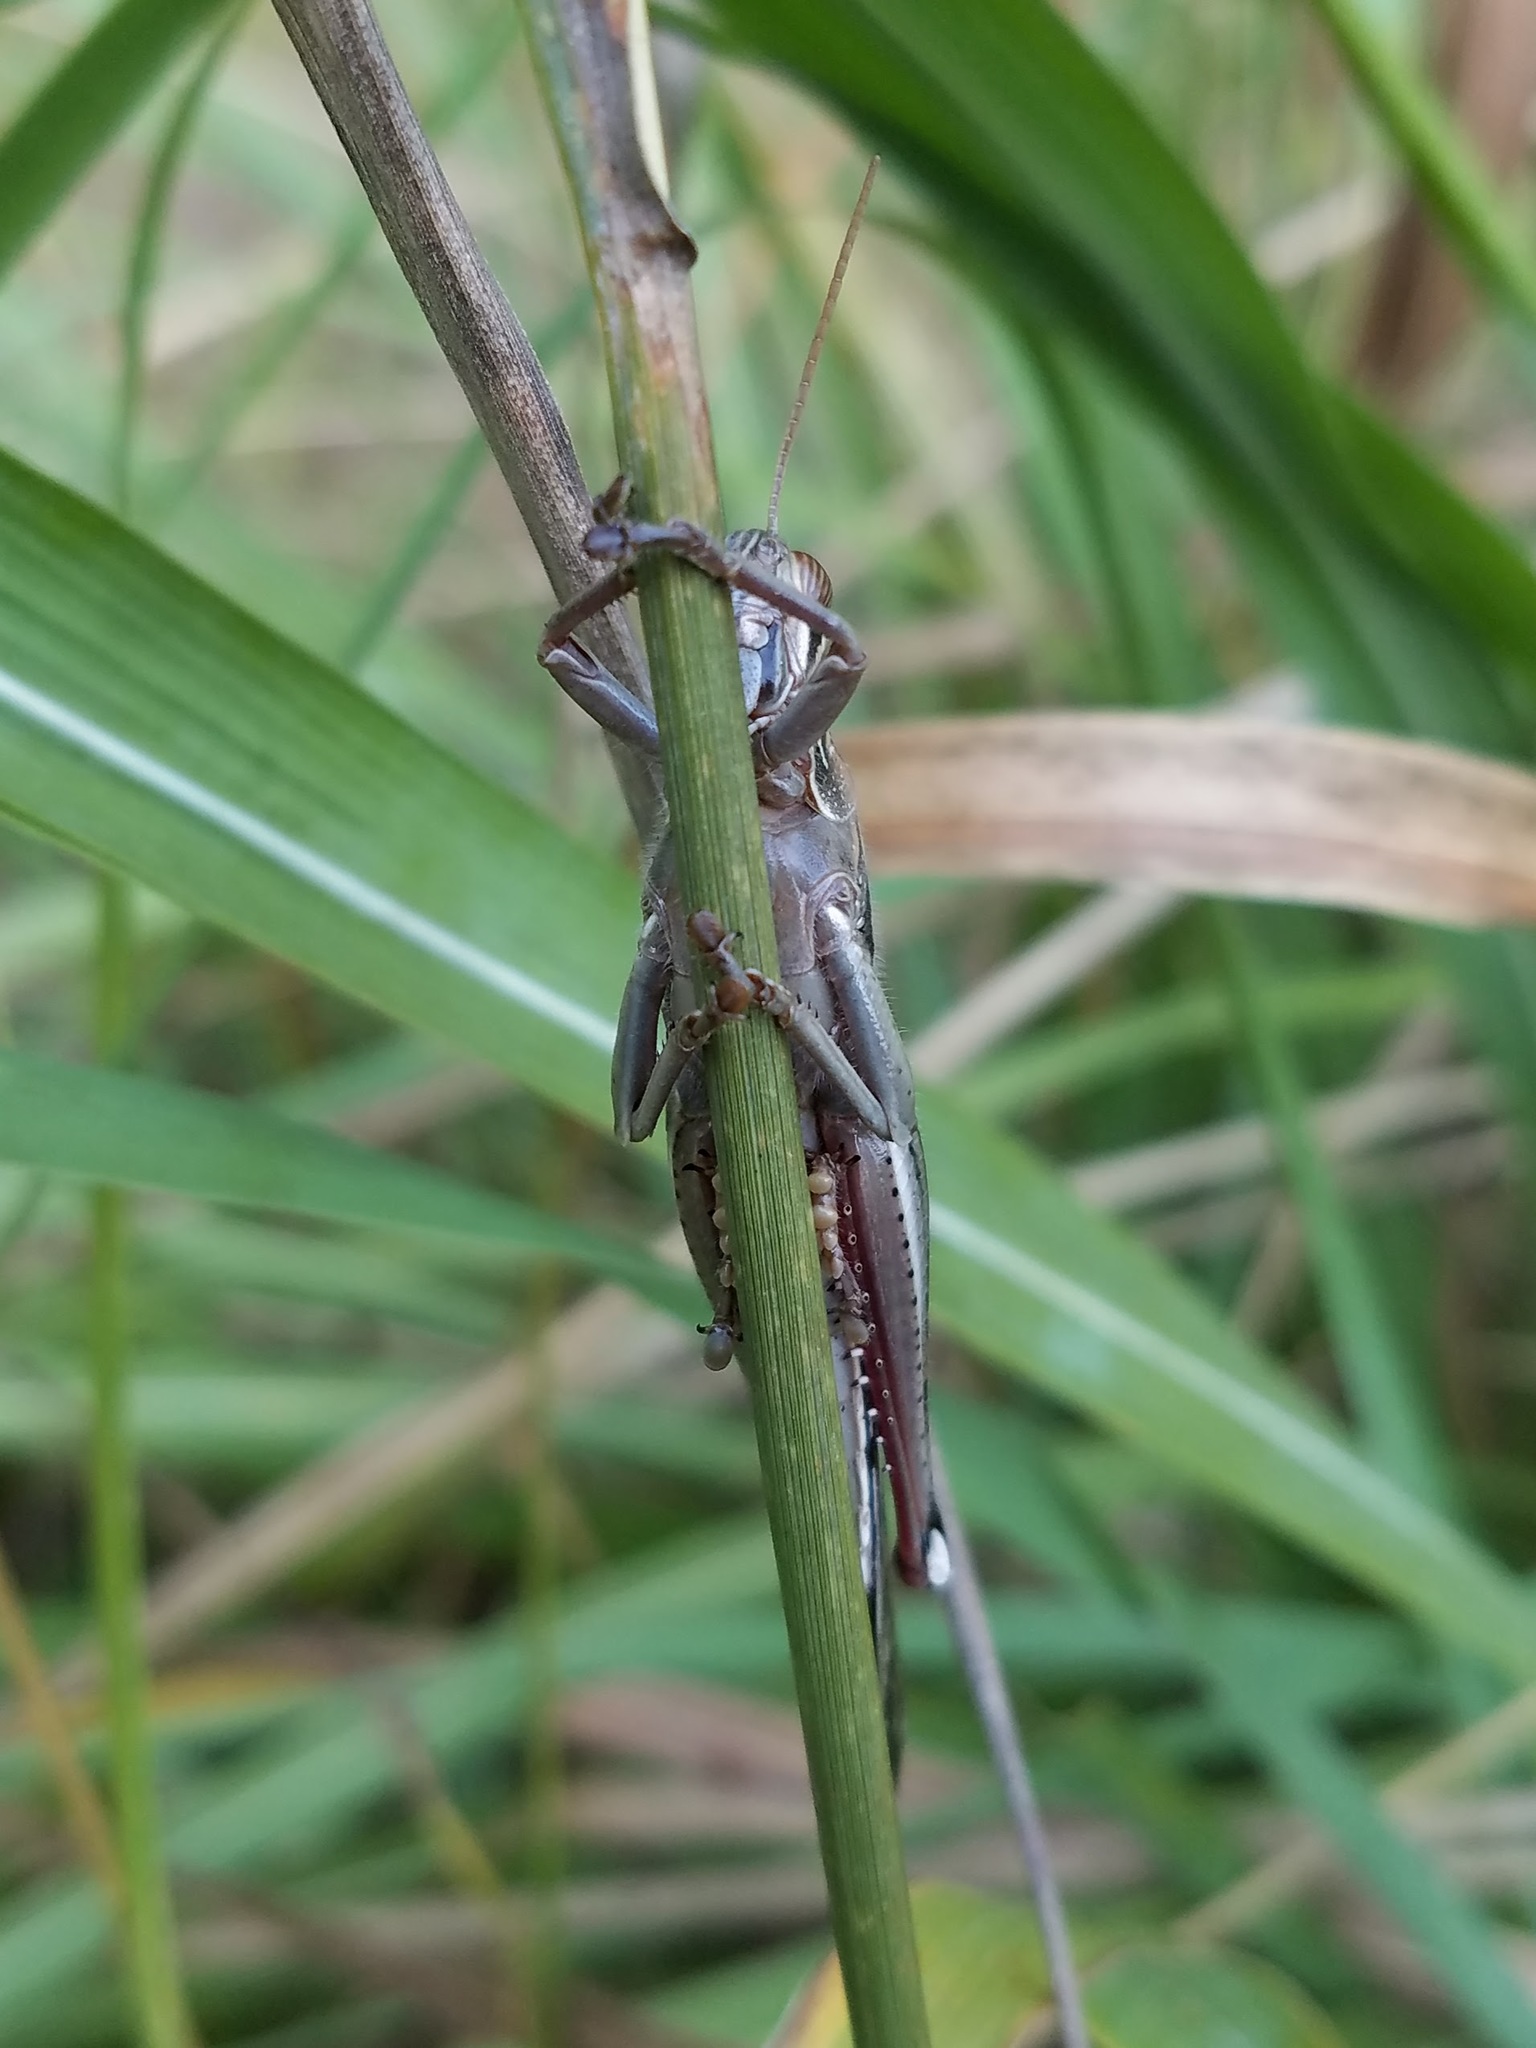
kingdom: Animalia
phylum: Arthropoda
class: Insecta
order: Orthoptera
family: Acrididae
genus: Schistocerca
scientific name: Schistocerca americana
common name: American bird locust
